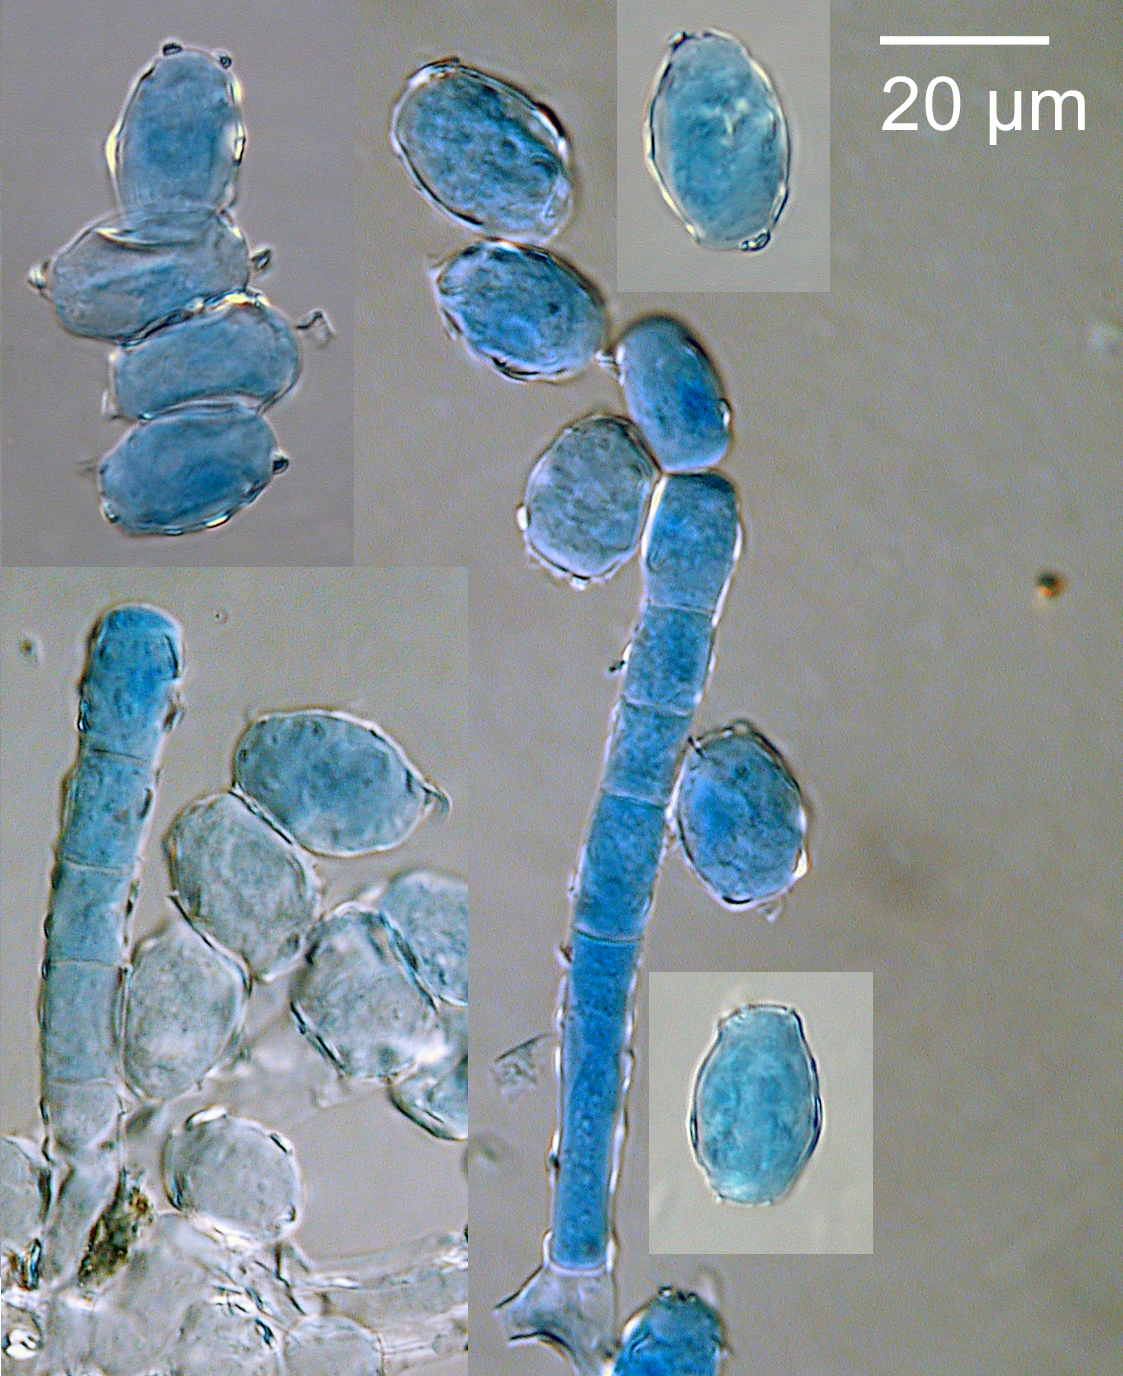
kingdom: Fungi
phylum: Ascomycota
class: Leotiomycetes
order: Helotiales
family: Erysiphaceae
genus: Podosphaera
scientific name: Podosphaera mors-uvae
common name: American gooseberry mildew
